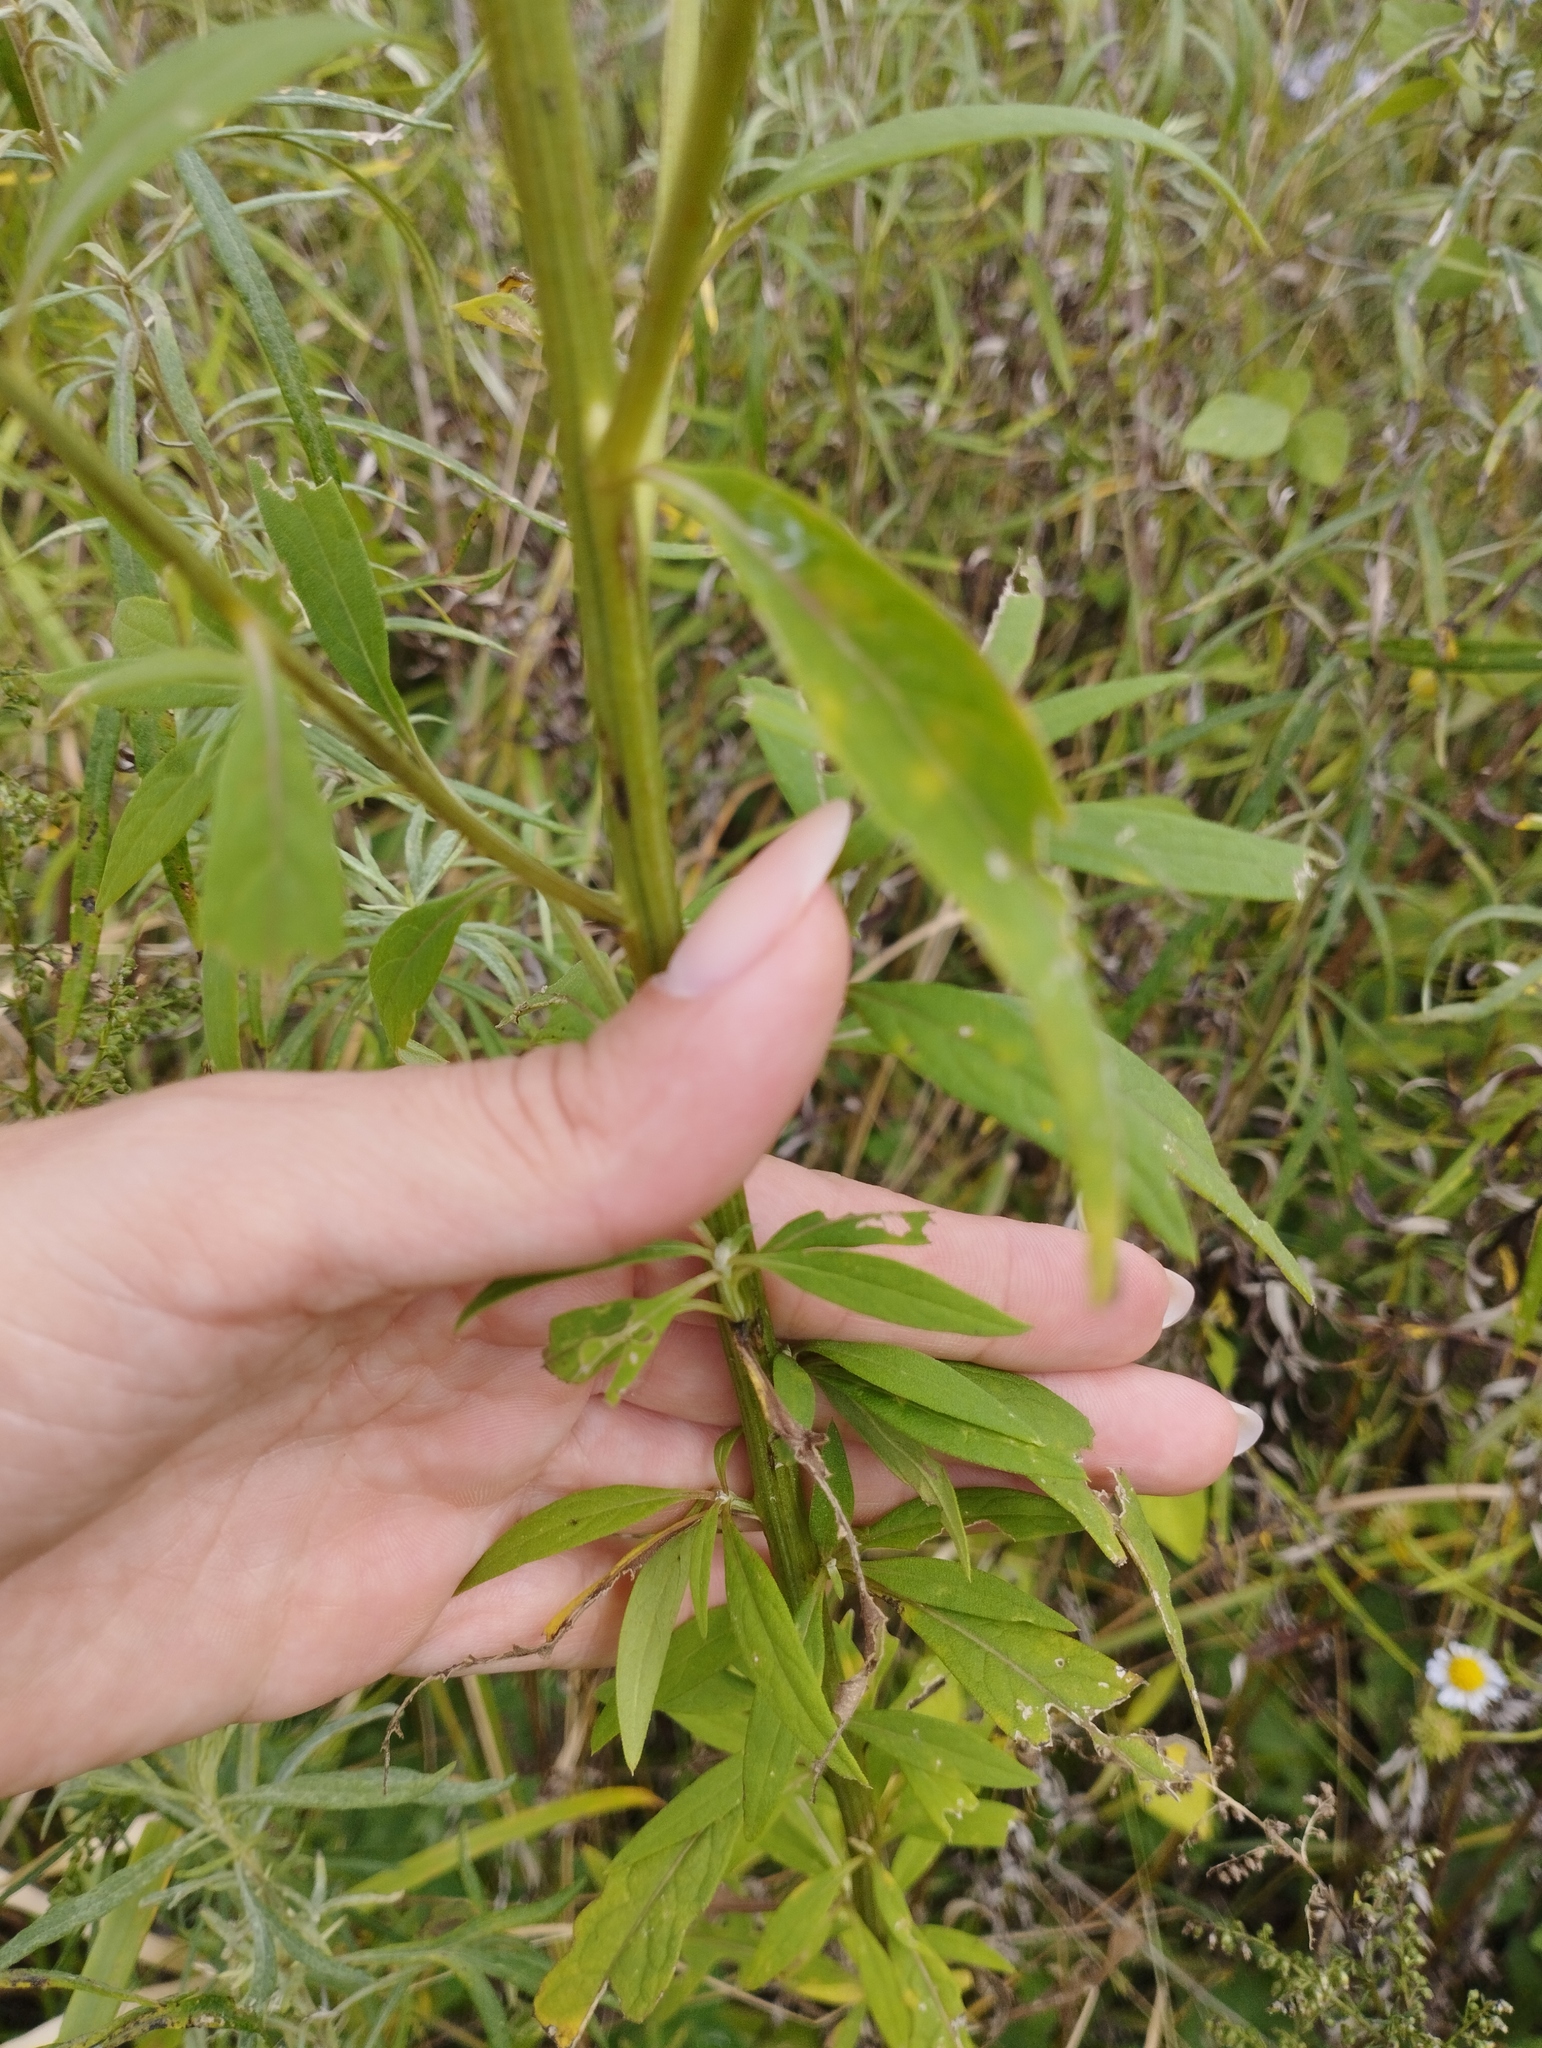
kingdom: Plantae
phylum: Tracheophyta
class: Magnoliopsida
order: Asterales
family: Asteraceae
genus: Saussurea
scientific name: Saussurea pulchella
